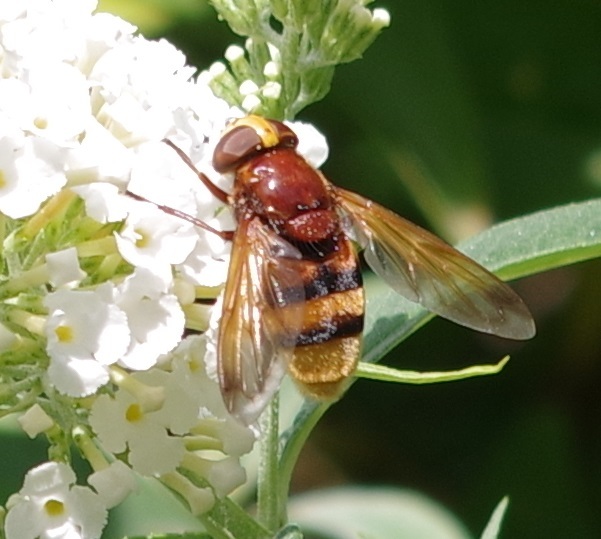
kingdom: Animalia
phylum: Arthropoda
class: Insecta
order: Diptera
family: Syrphidae
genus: Volucella
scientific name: Volucella zonaria
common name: Hornet hoverfly
